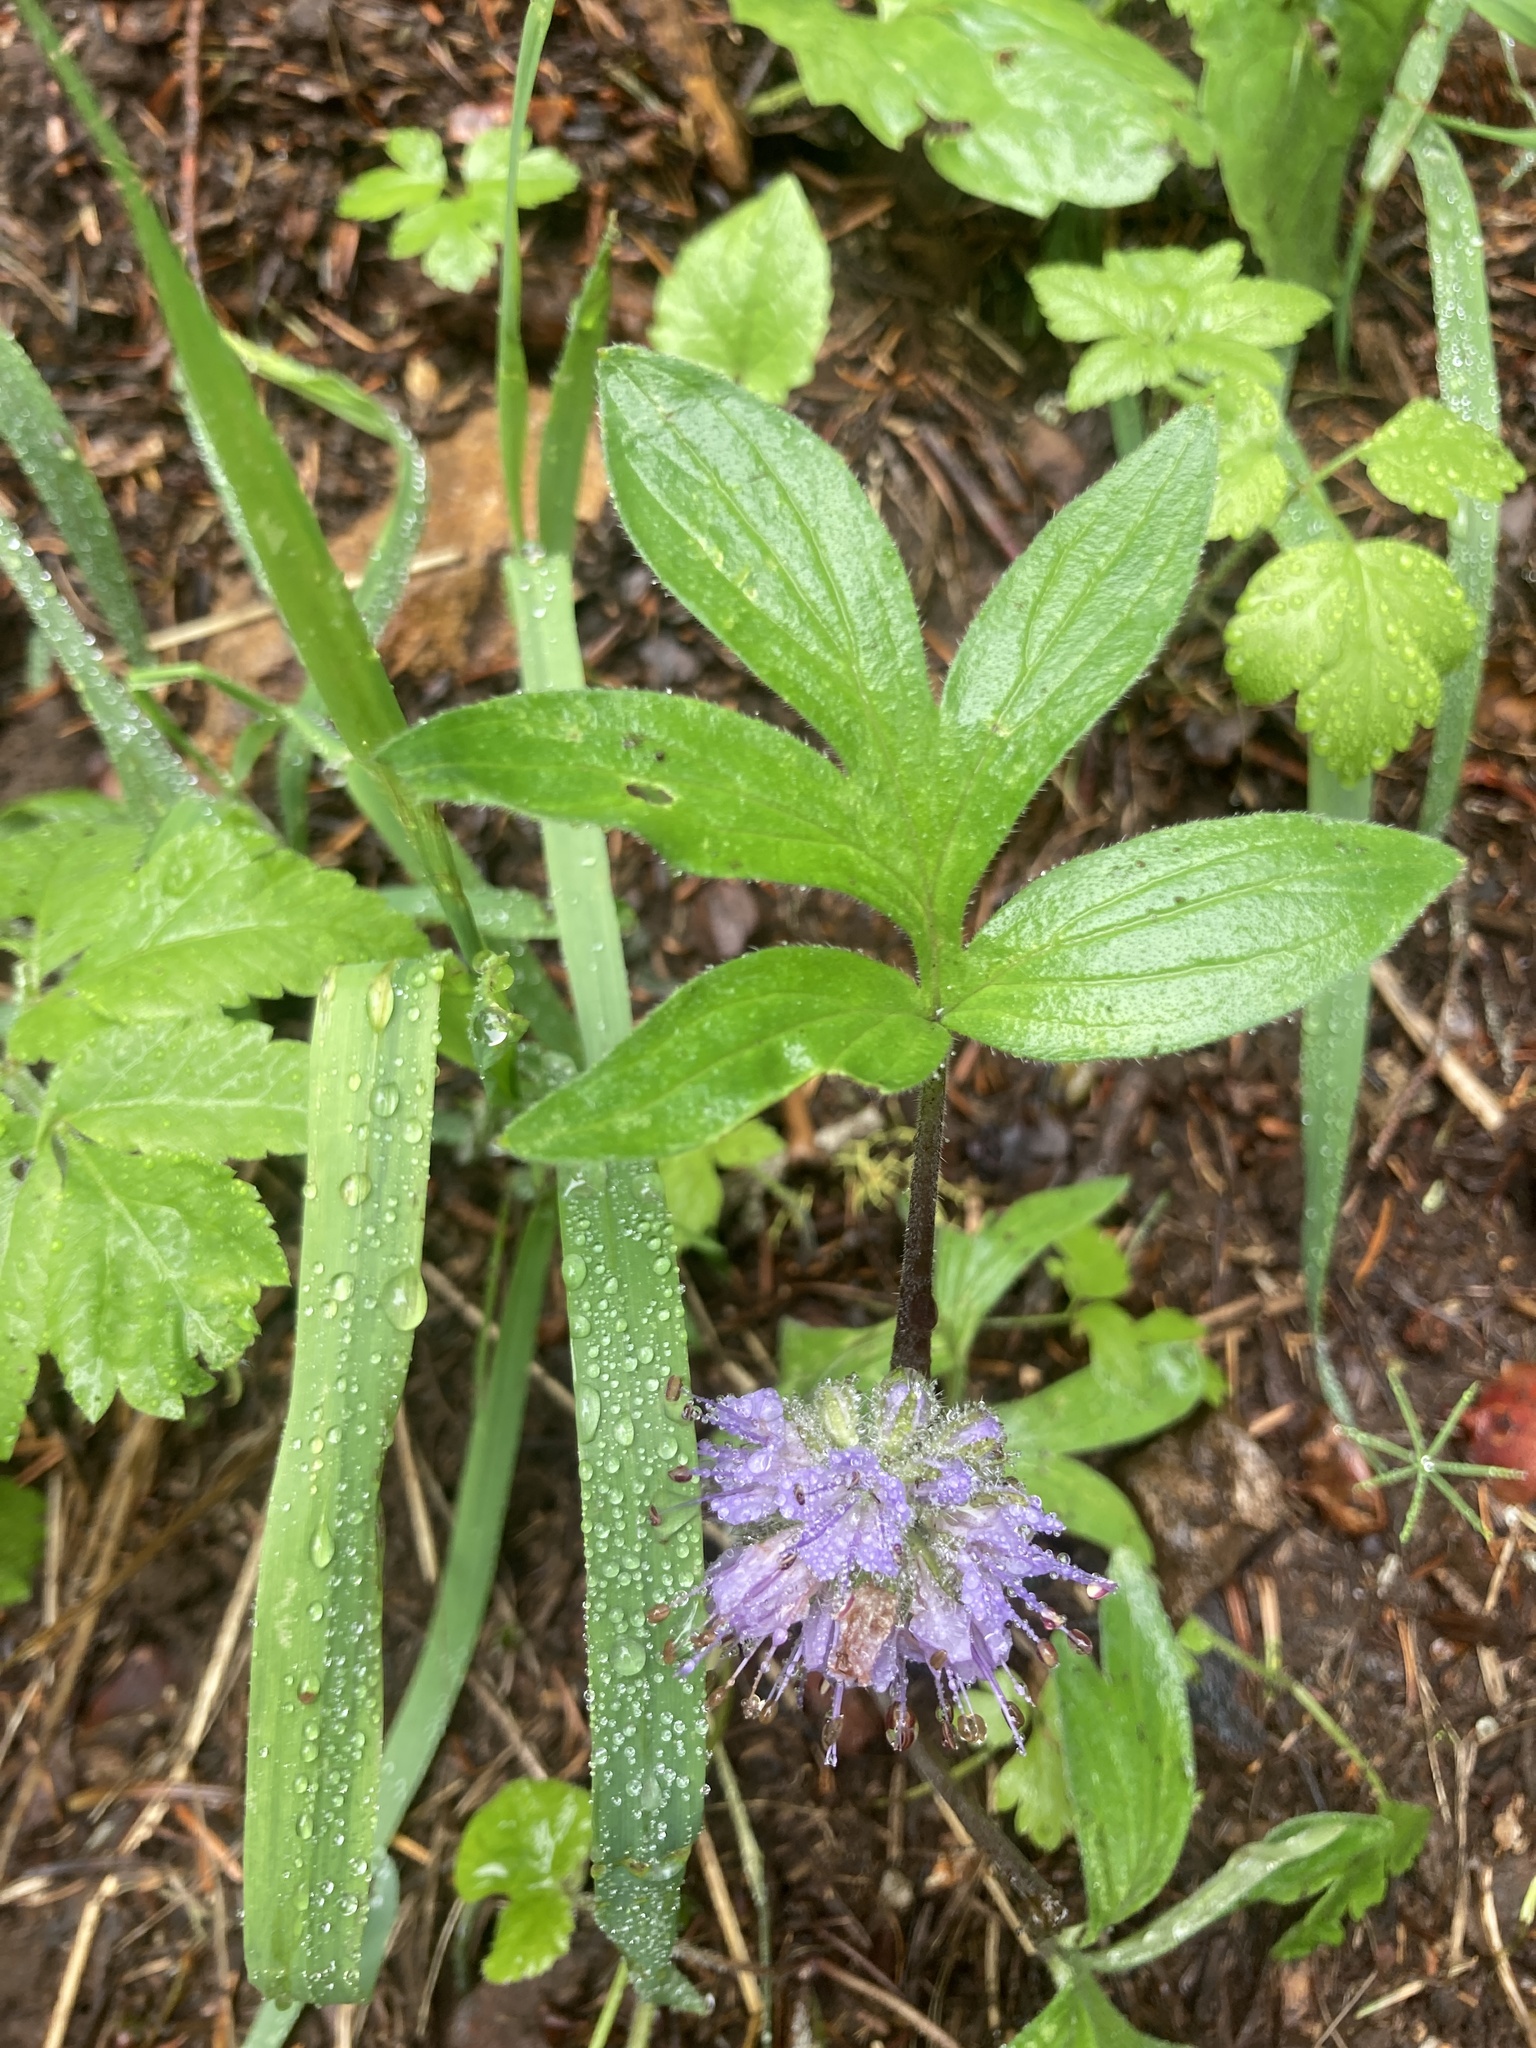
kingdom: Plantae
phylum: Tracheophyta
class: Magnoliopsida
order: Boraginales
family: Hydrophyllaceae
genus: Hydrophyllum
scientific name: Hydrophyllum capitatum
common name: Woollen-breeches
